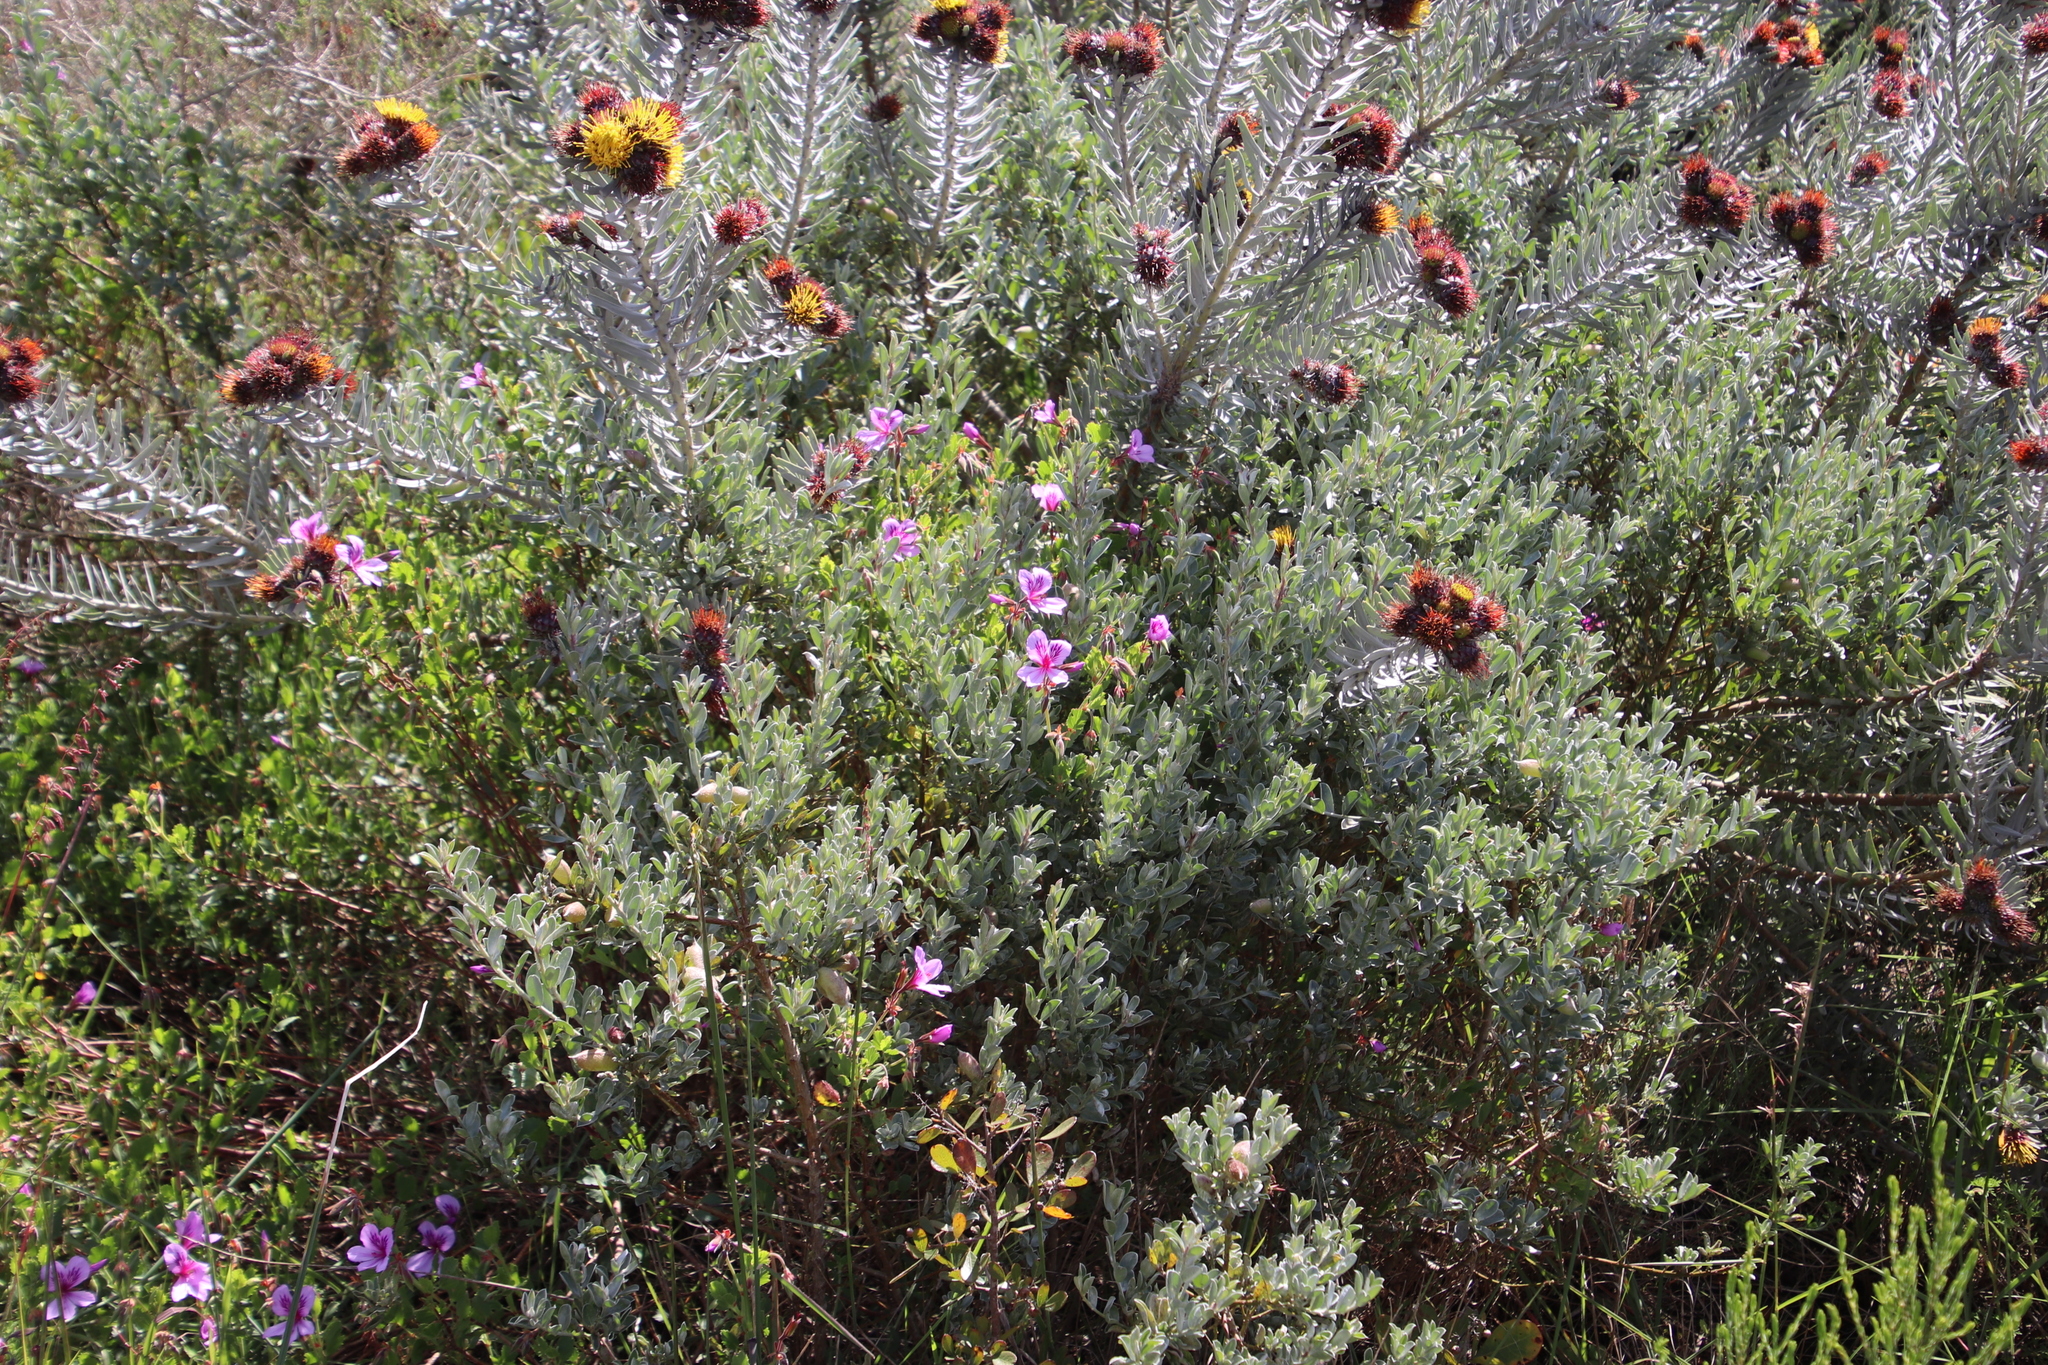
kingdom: Plantae
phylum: Tracheophyta
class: Magnoliopsida
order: Geraniales
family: Geraniaceae
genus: Pelargonium
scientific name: Pelargonium betulinum
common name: Birch-leaf pelargonium
